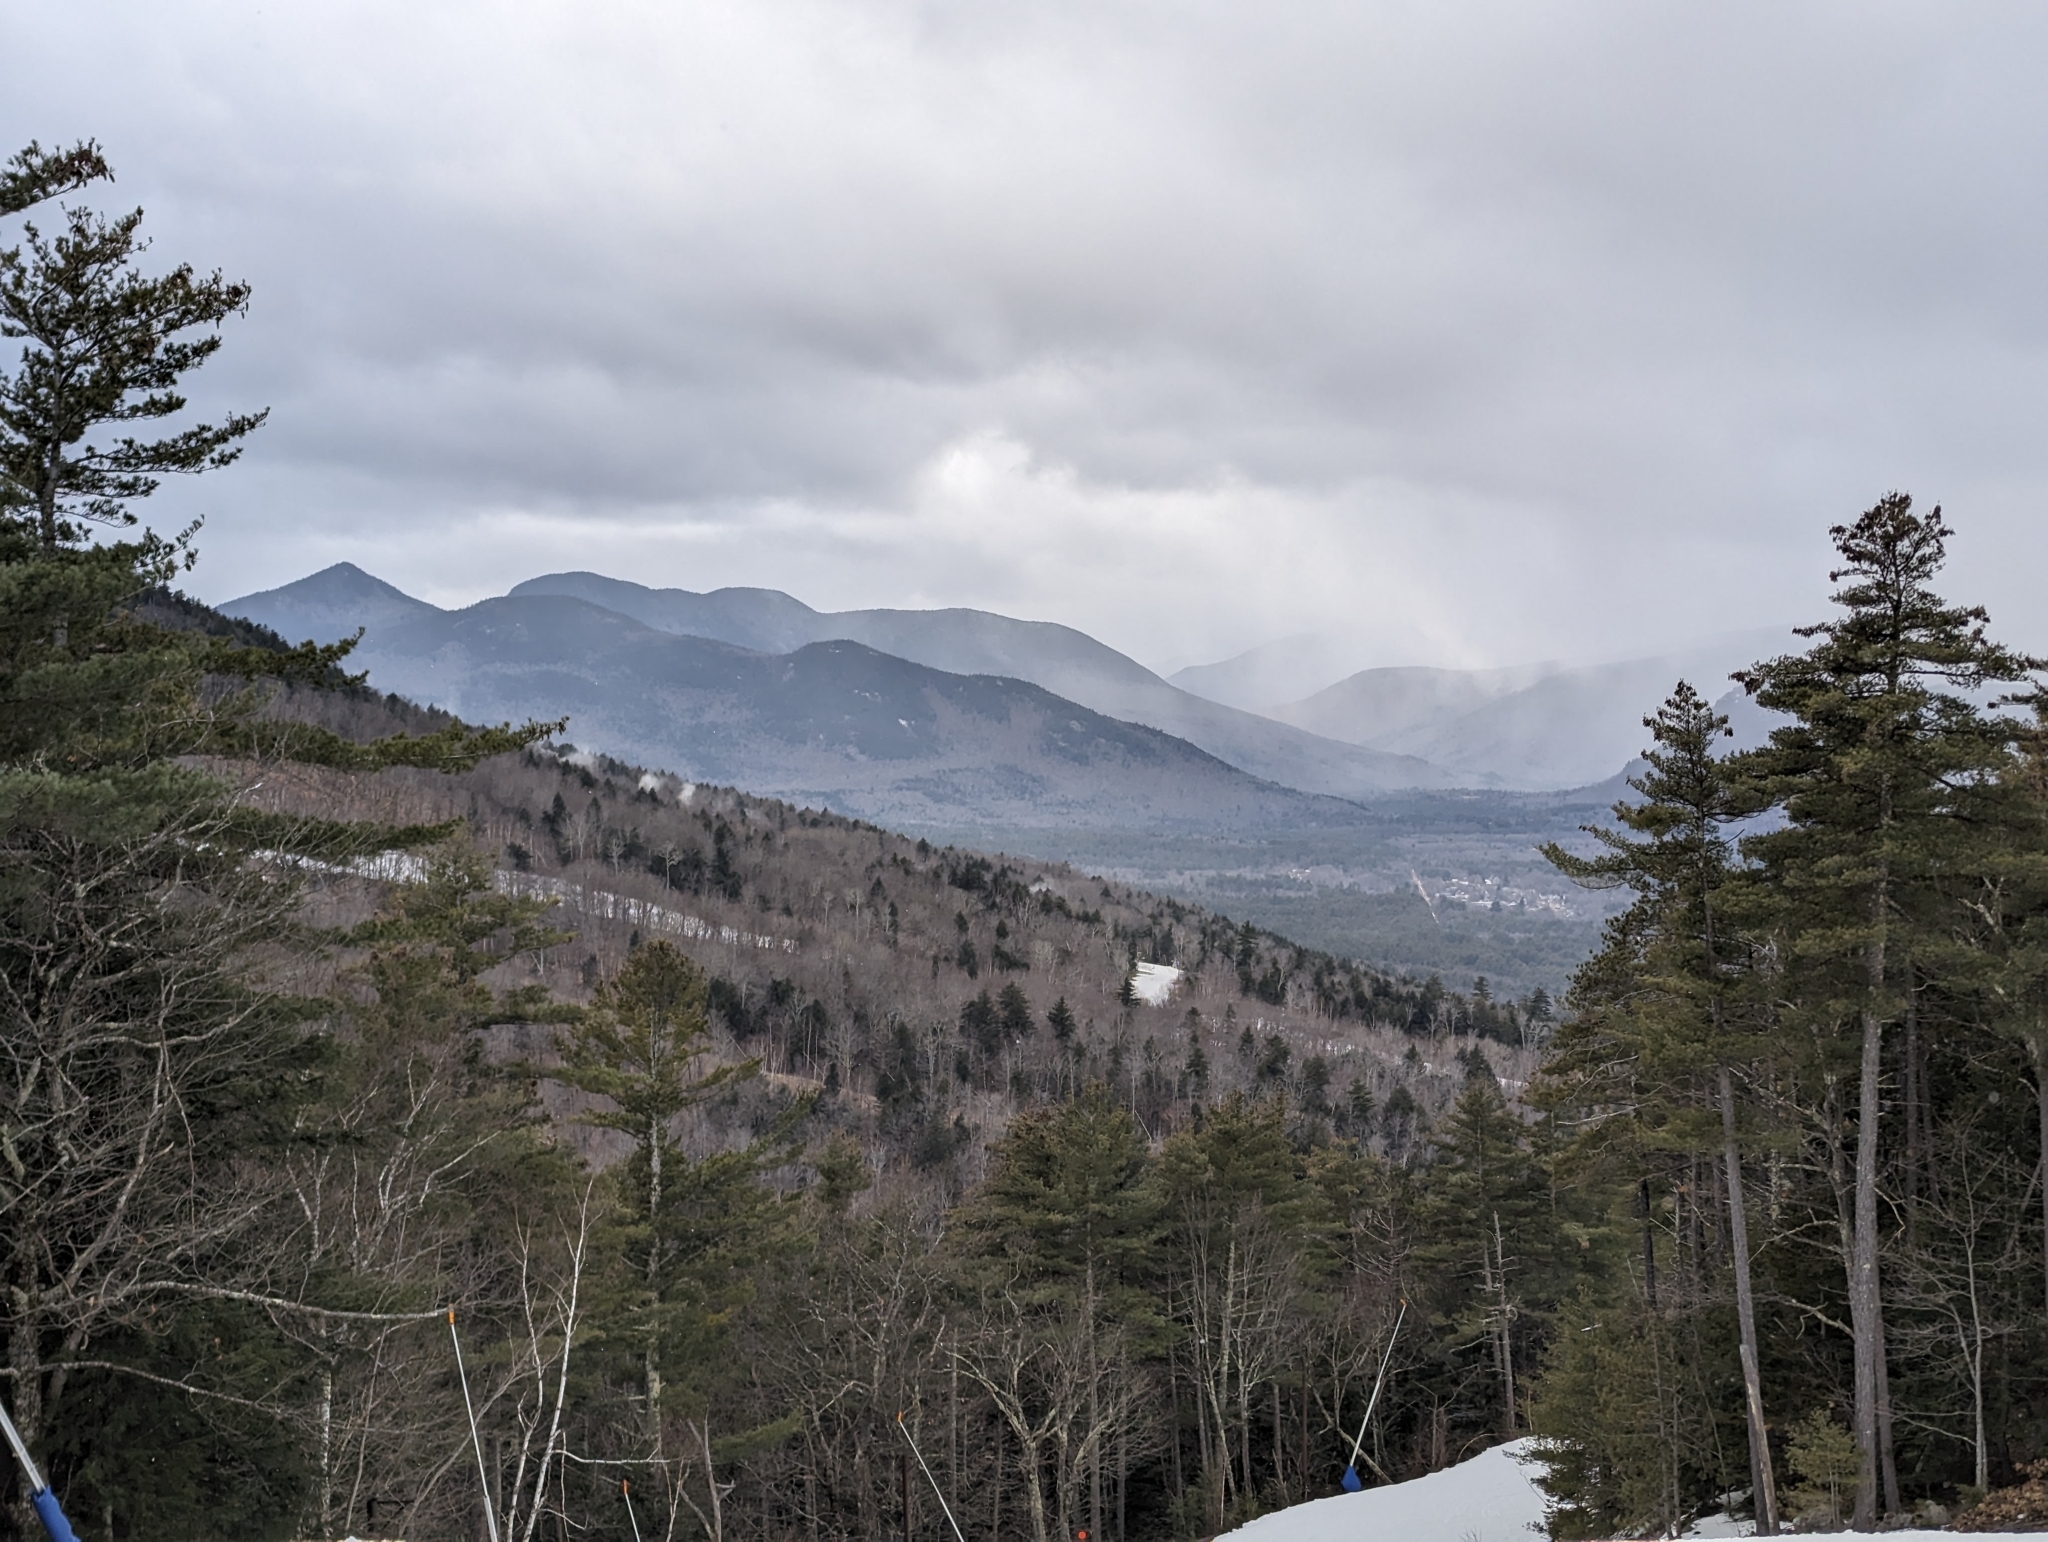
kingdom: Plantae
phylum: Tracheophyta
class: Pinopsida
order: Pinales
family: Pinaceae
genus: Pinus
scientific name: Pinus strobus
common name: Weymouth pine
